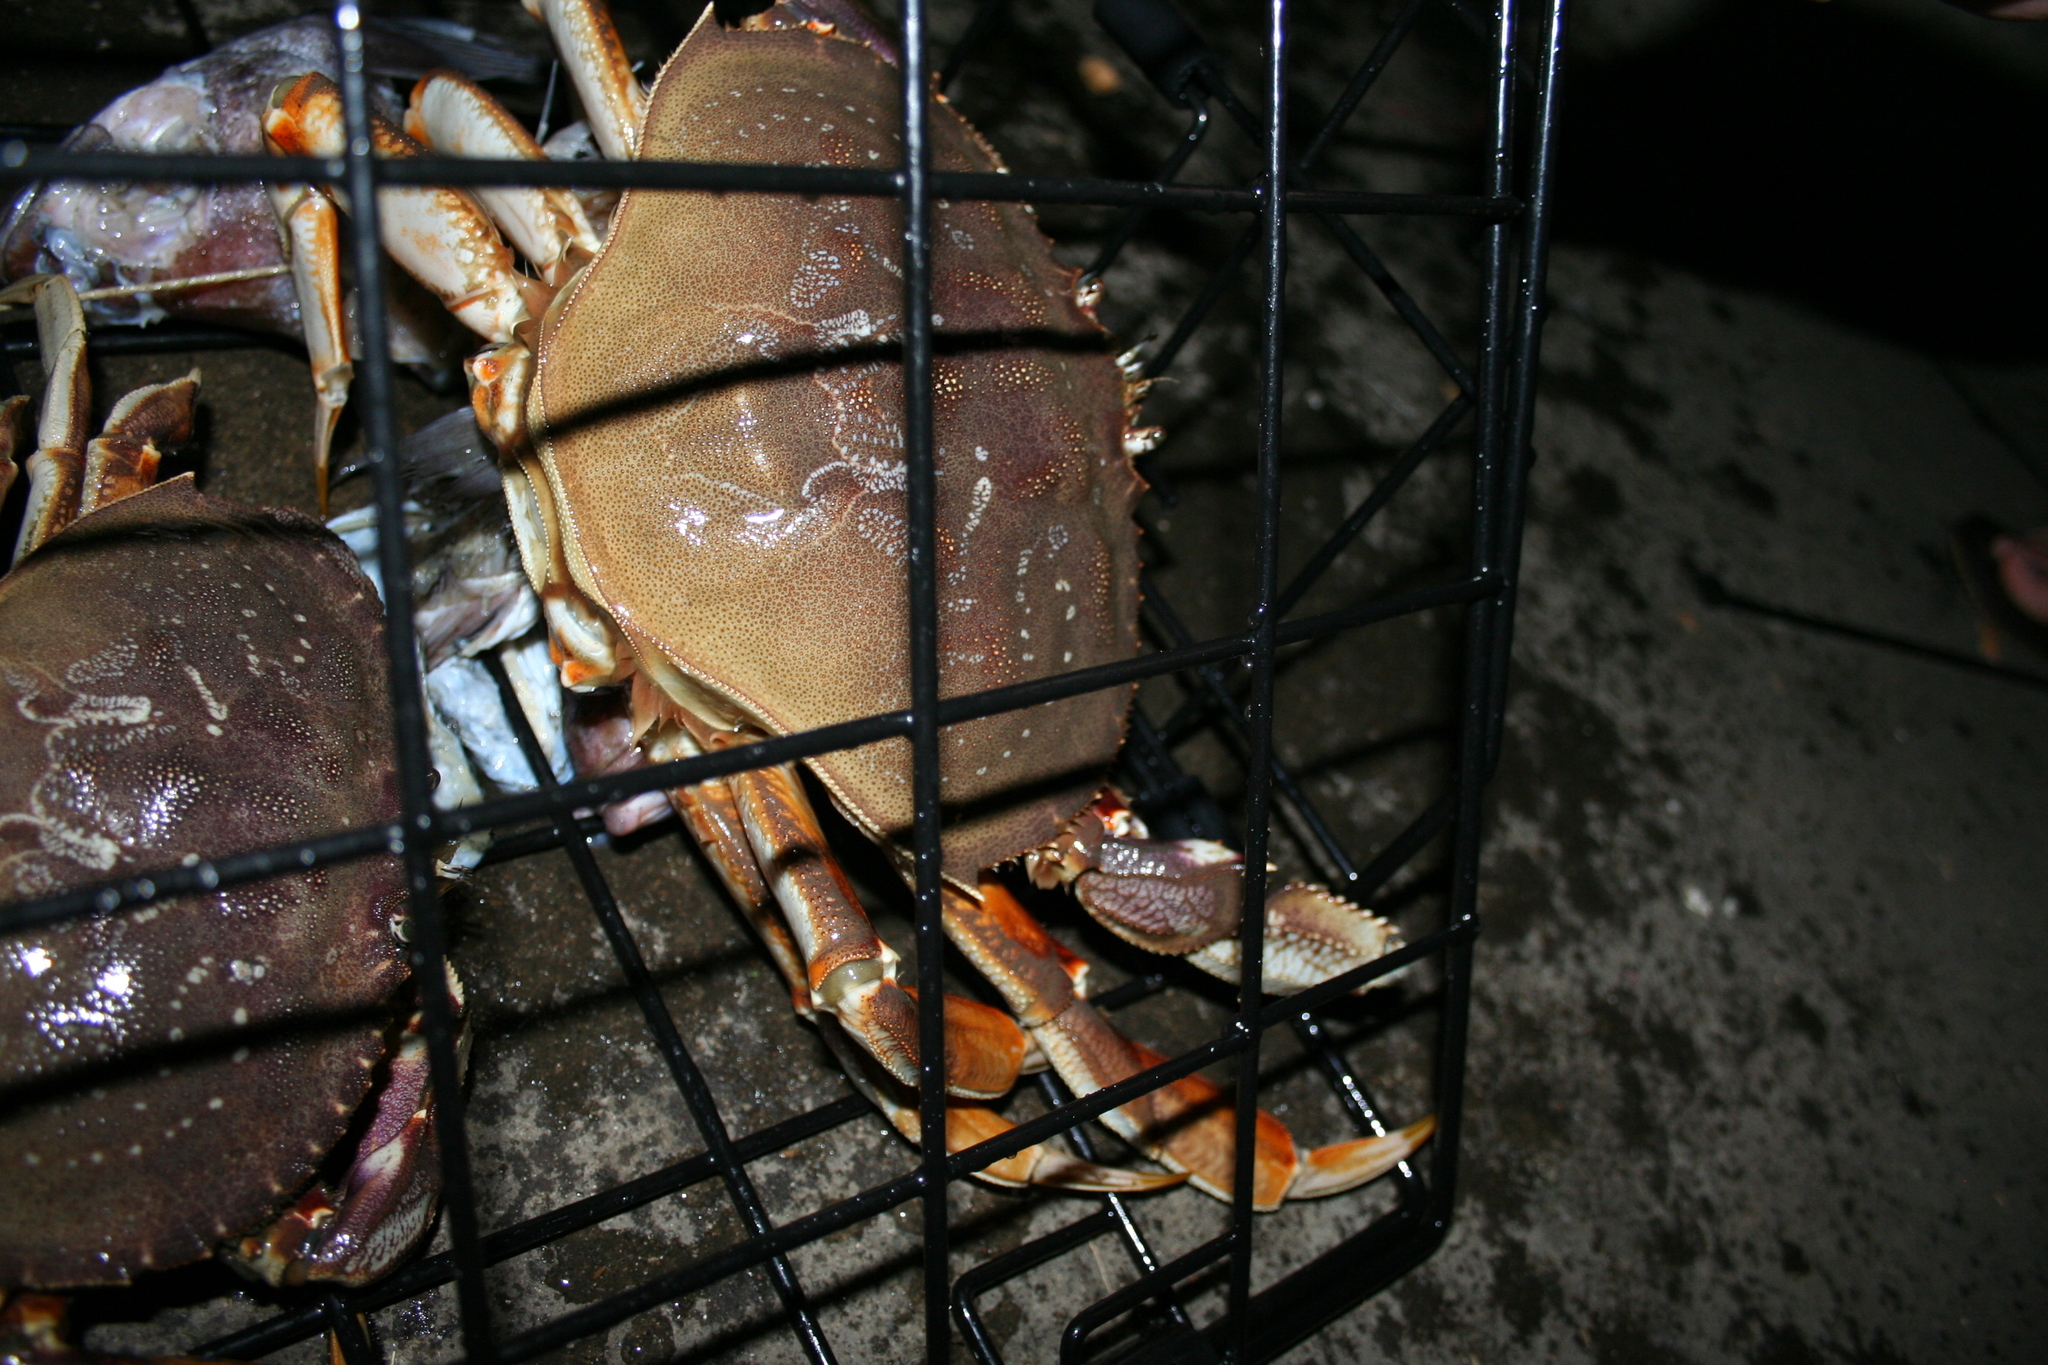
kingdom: Animalia
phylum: Arthropoda
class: Malacostraca
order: Decapoda
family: Cancridae
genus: Metacarcinus
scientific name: Metacarcinus magister
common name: Californian crab
